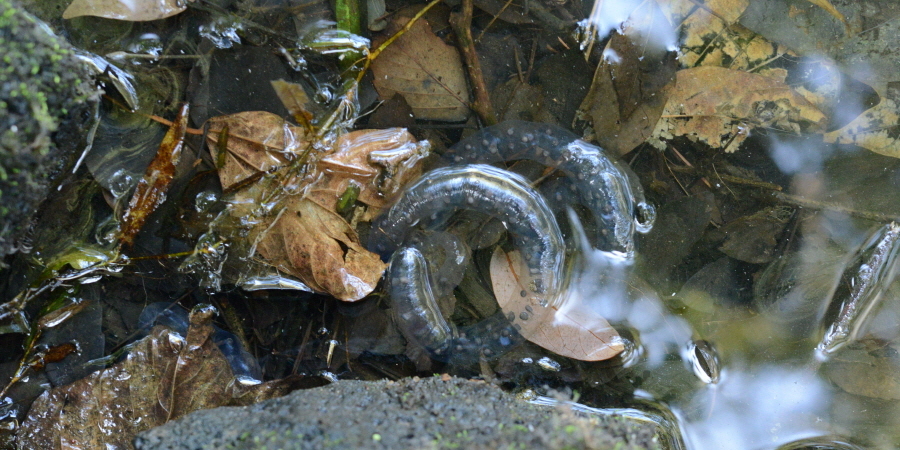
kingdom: Animalia
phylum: Chordata
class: Amphibia
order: Caudata
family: Hynobiidae
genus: Hynobius
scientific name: Hynobius quelpaertensis
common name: Cheju salamander
